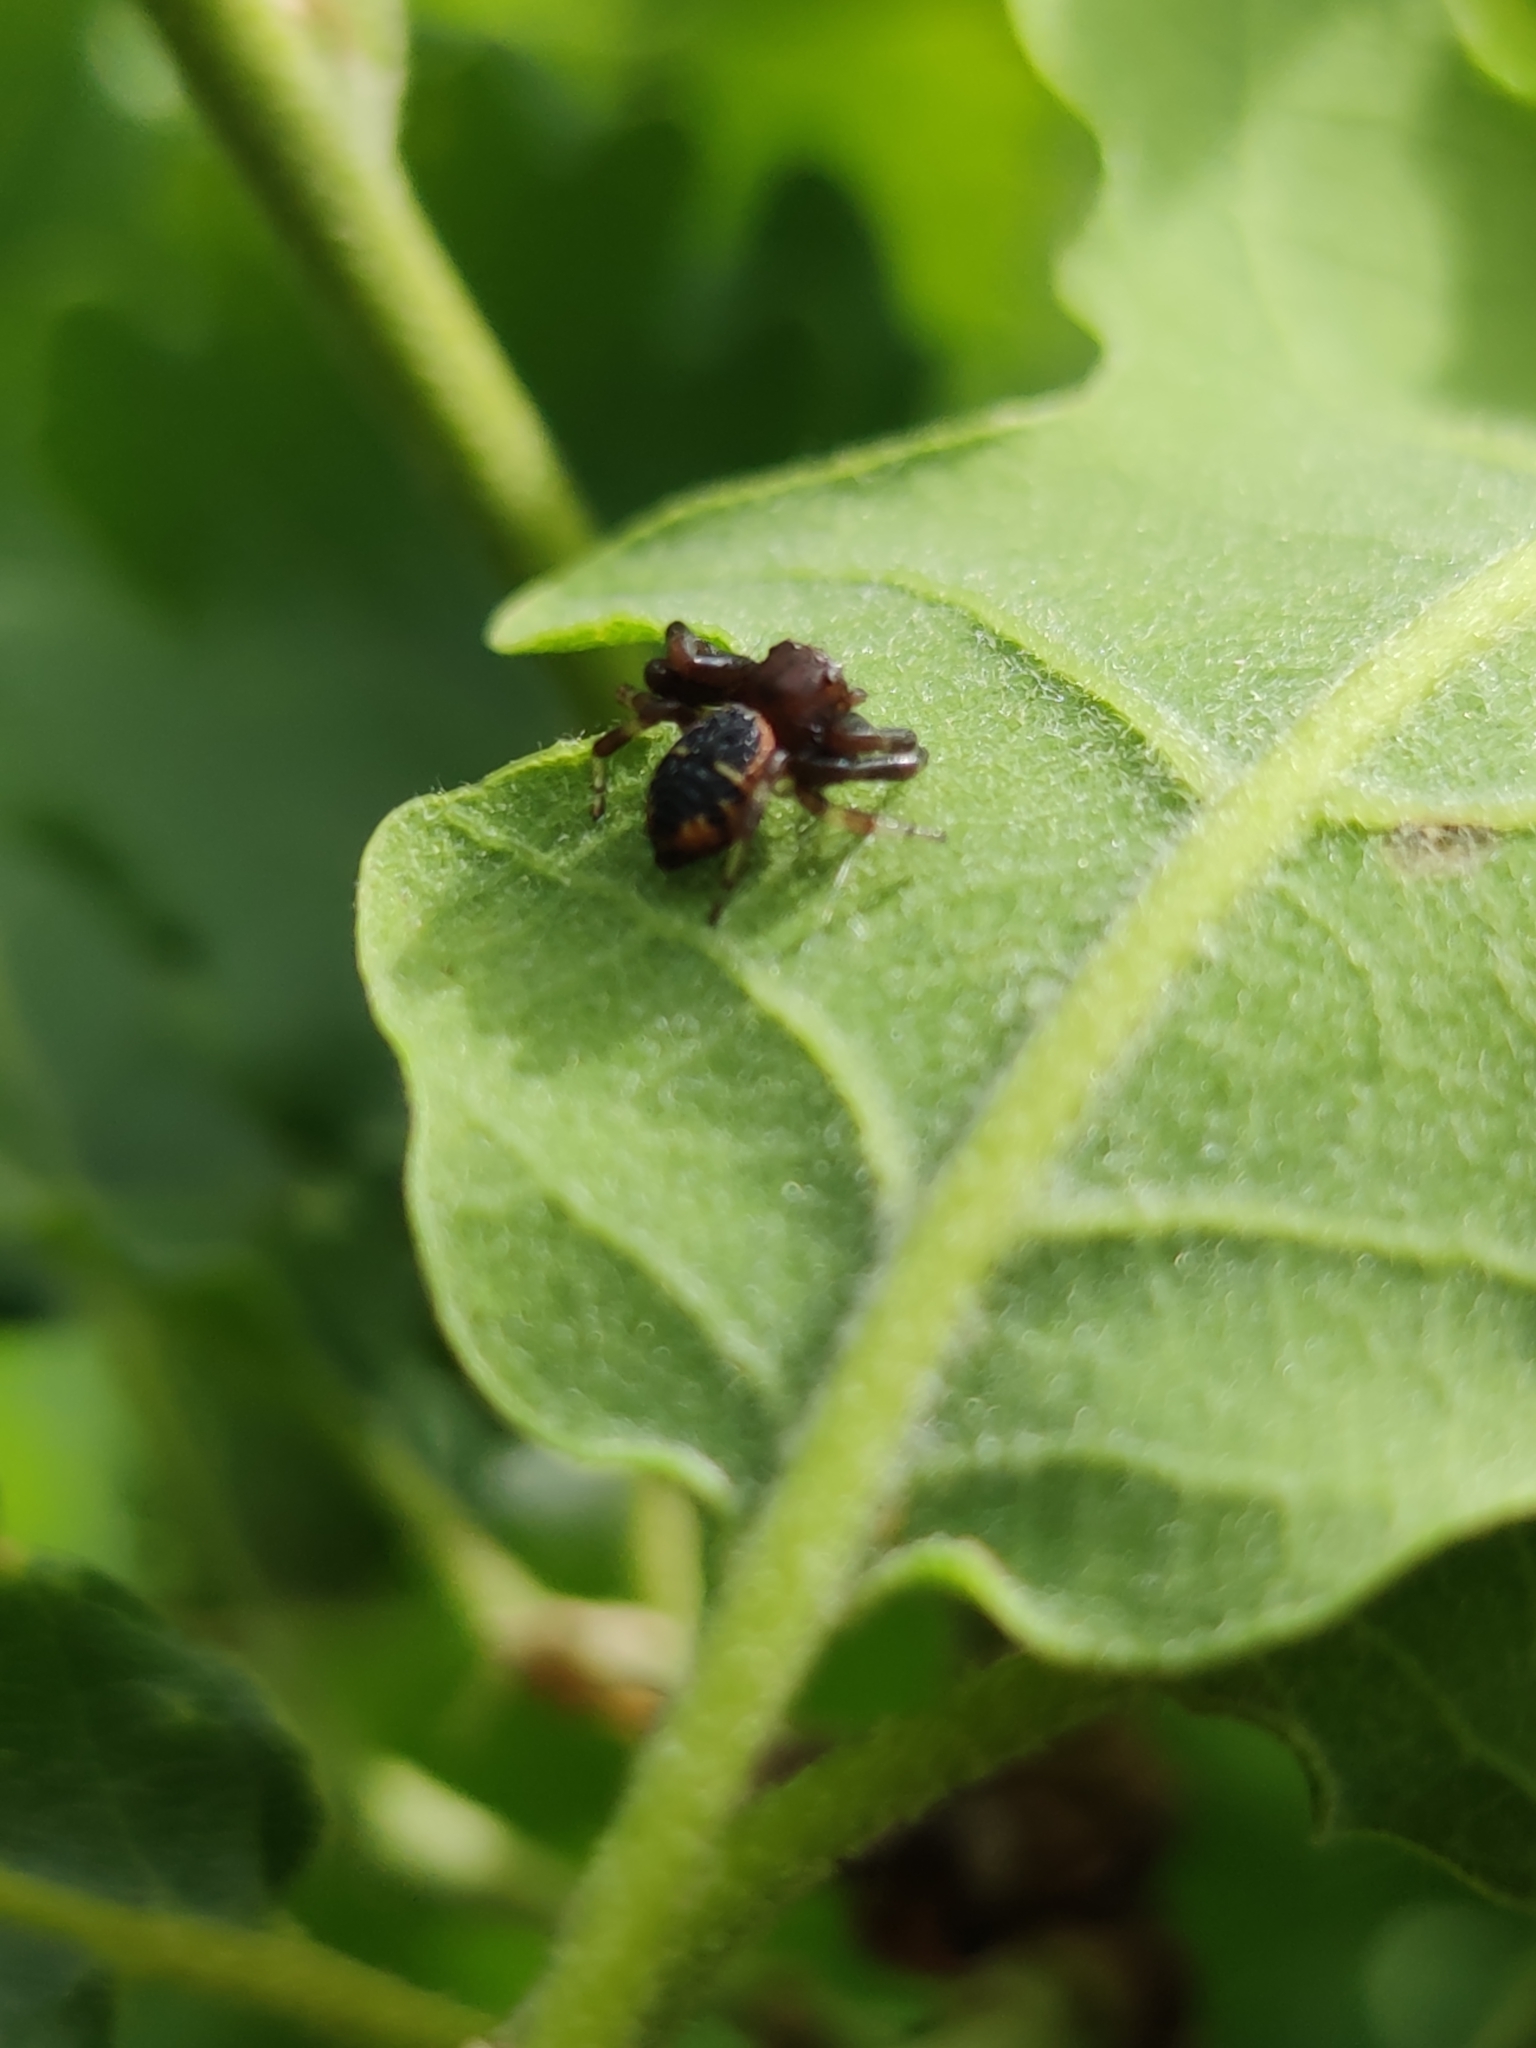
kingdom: Animalia
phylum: Arthropoda
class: Arachnida
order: Araneae
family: Thomisidae
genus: Synema
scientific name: Synema globosum
